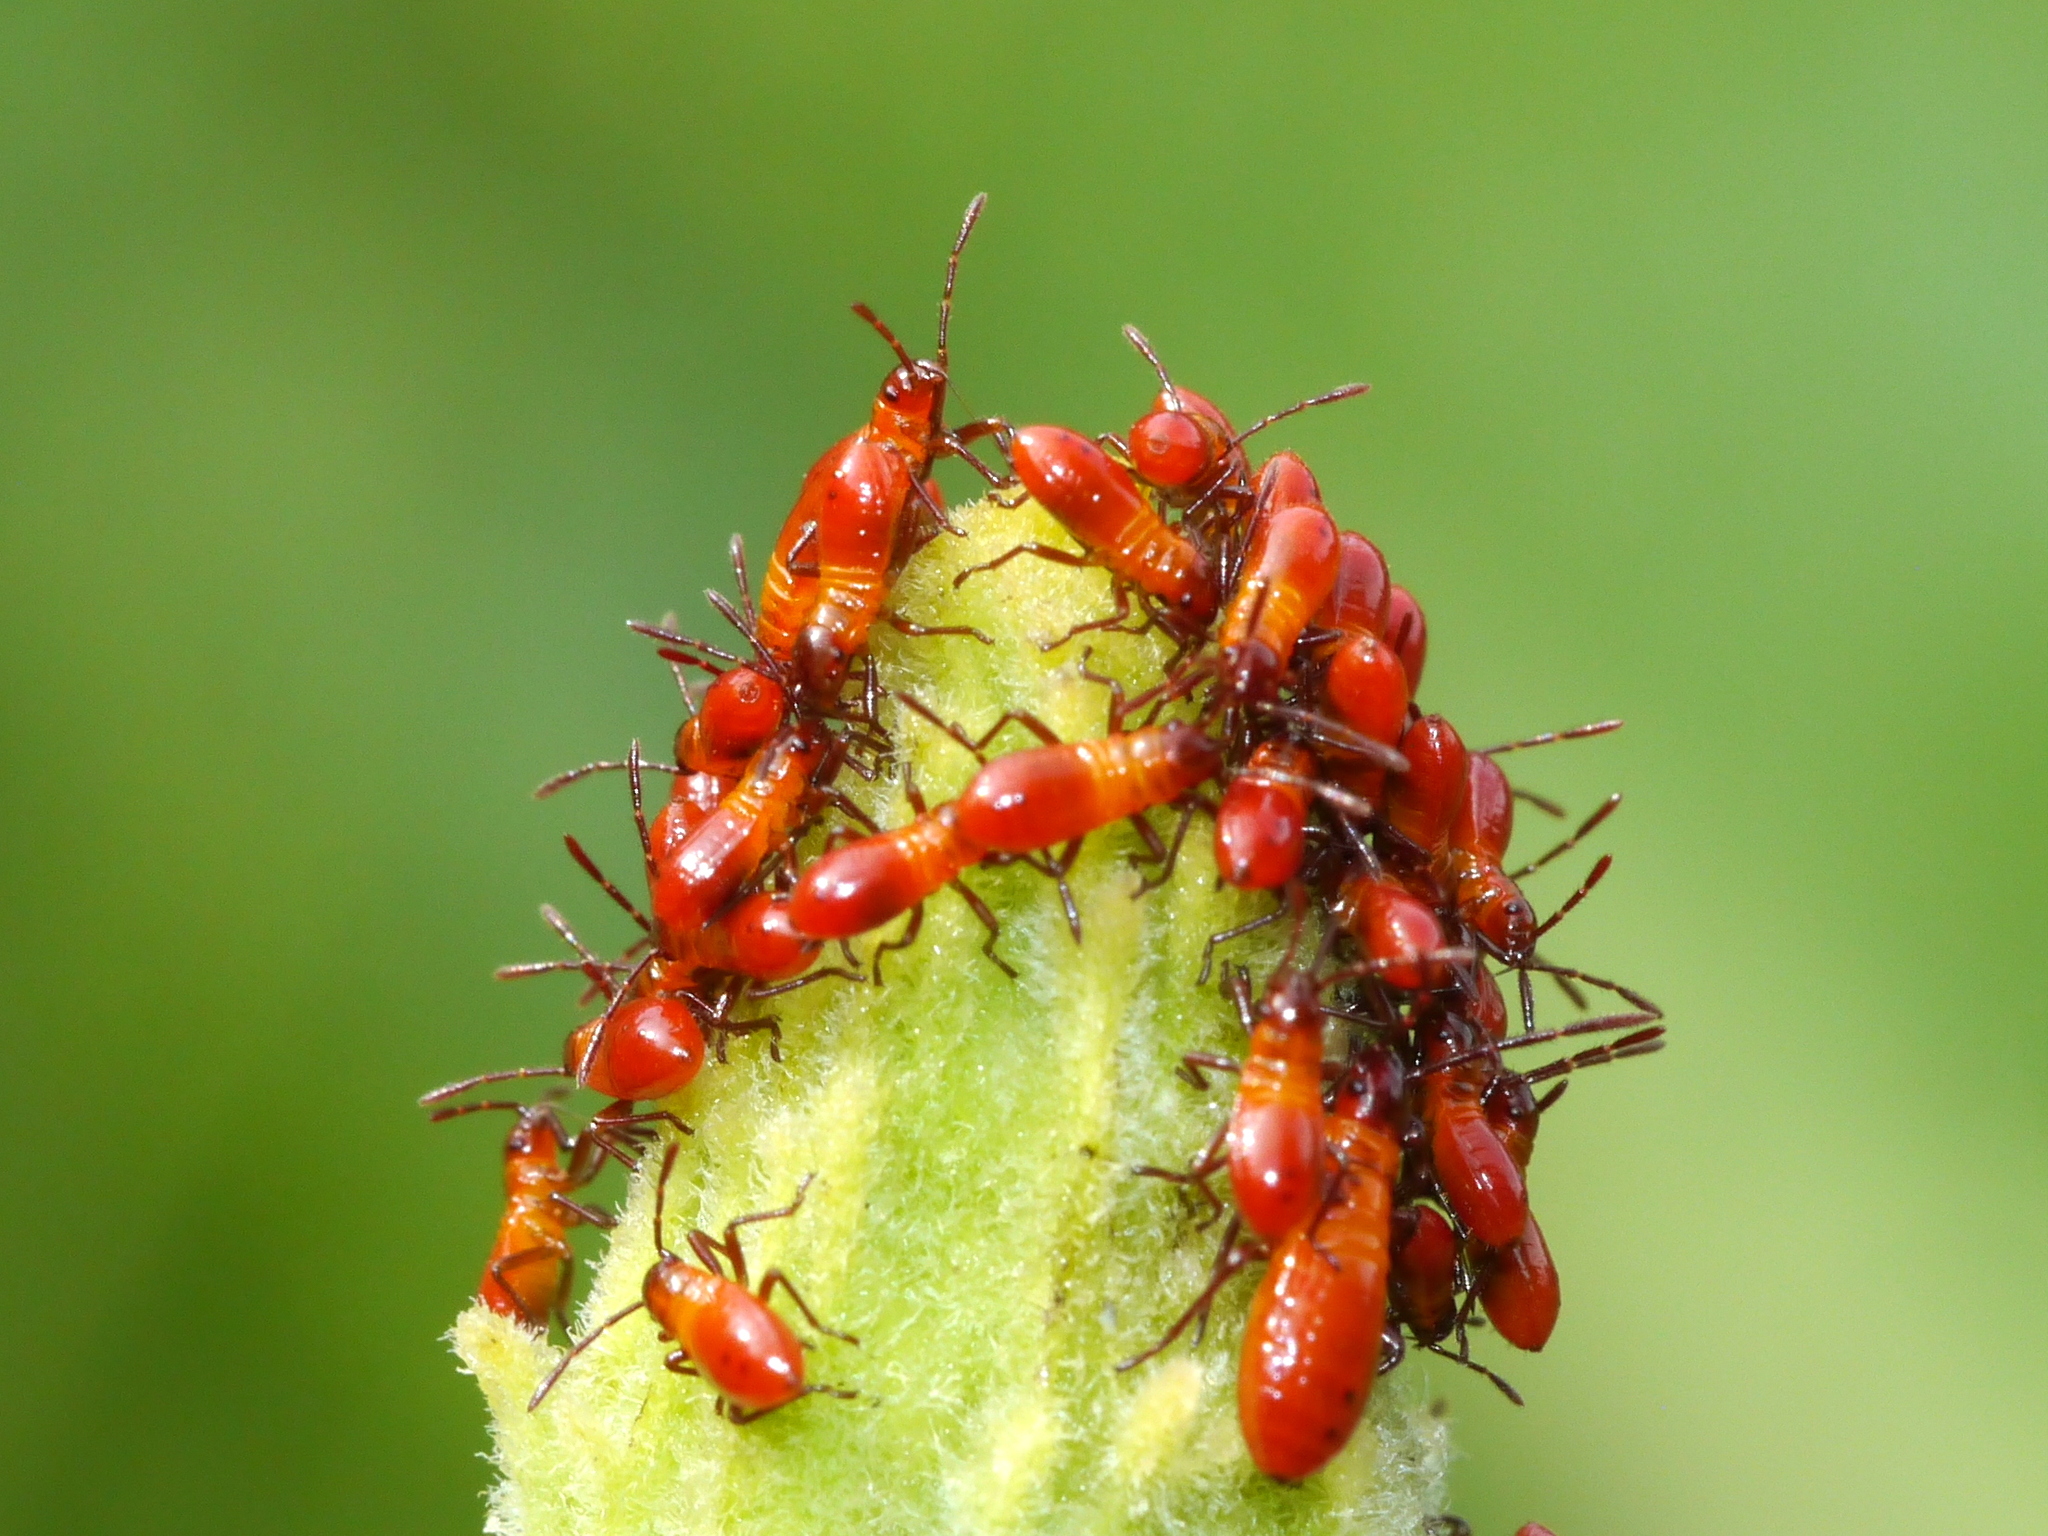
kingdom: Animalia
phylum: Arthropoda
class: Insecta
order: Hemiptera
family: Lygaeidae
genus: Oncopeltus
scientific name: Oncopeltus fasciatus
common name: Large milkweed bug
